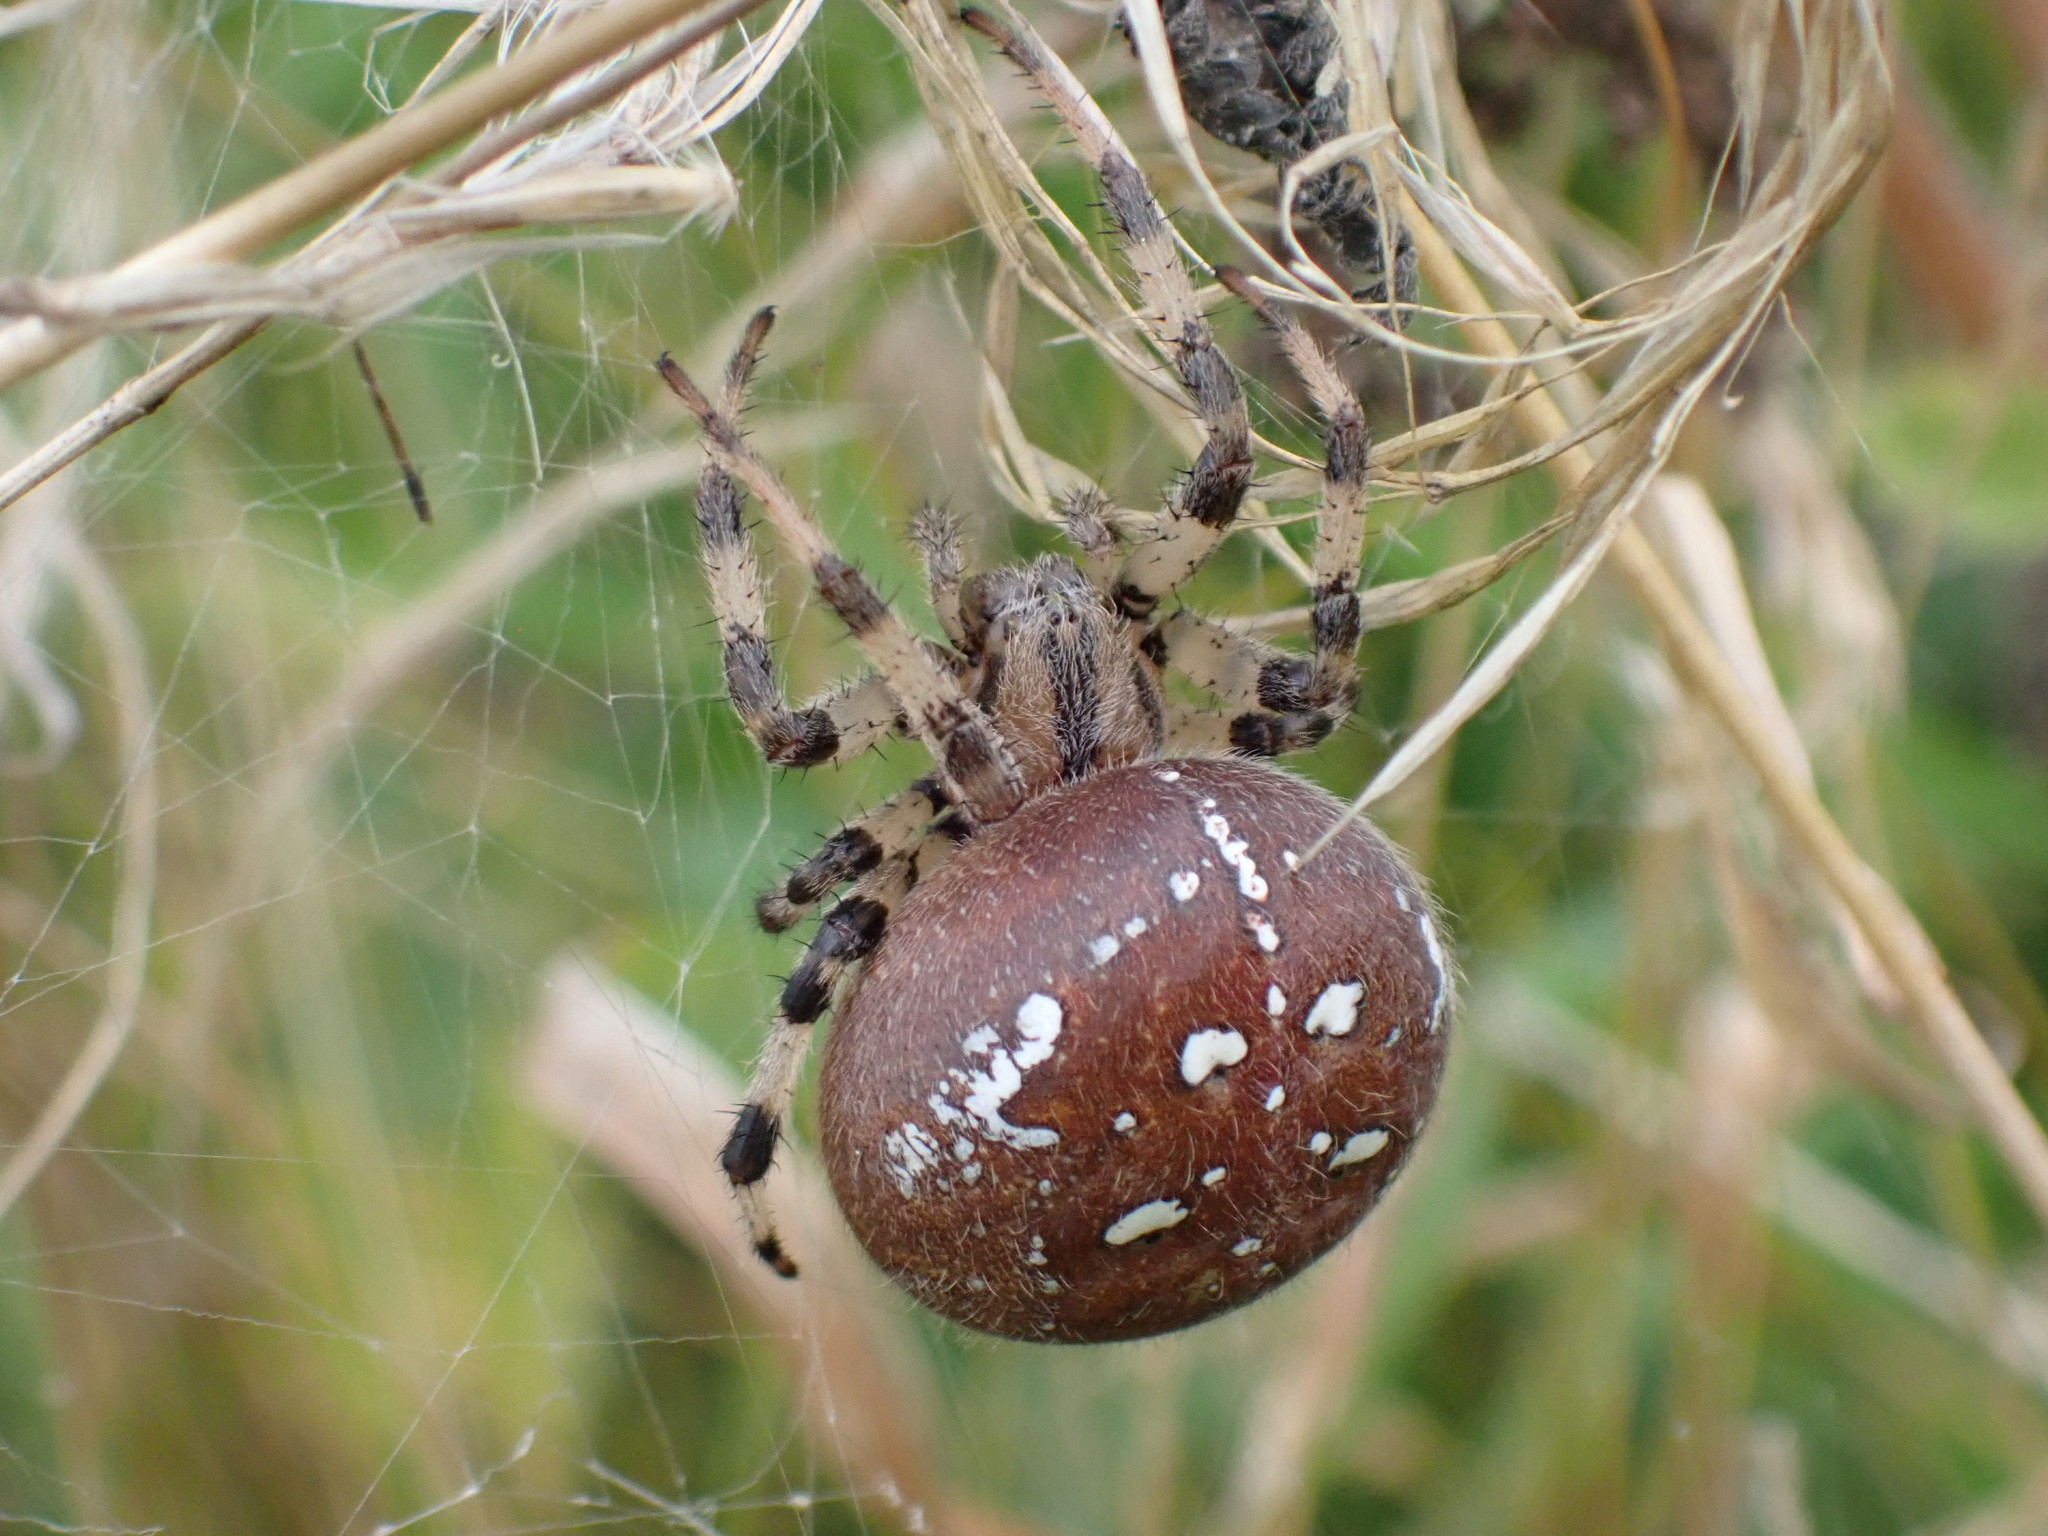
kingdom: Animalia
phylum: Arthropoda
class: Arachnida
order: Araneae
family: Araneidae
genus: Araneus
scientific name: Araneus quadratus
